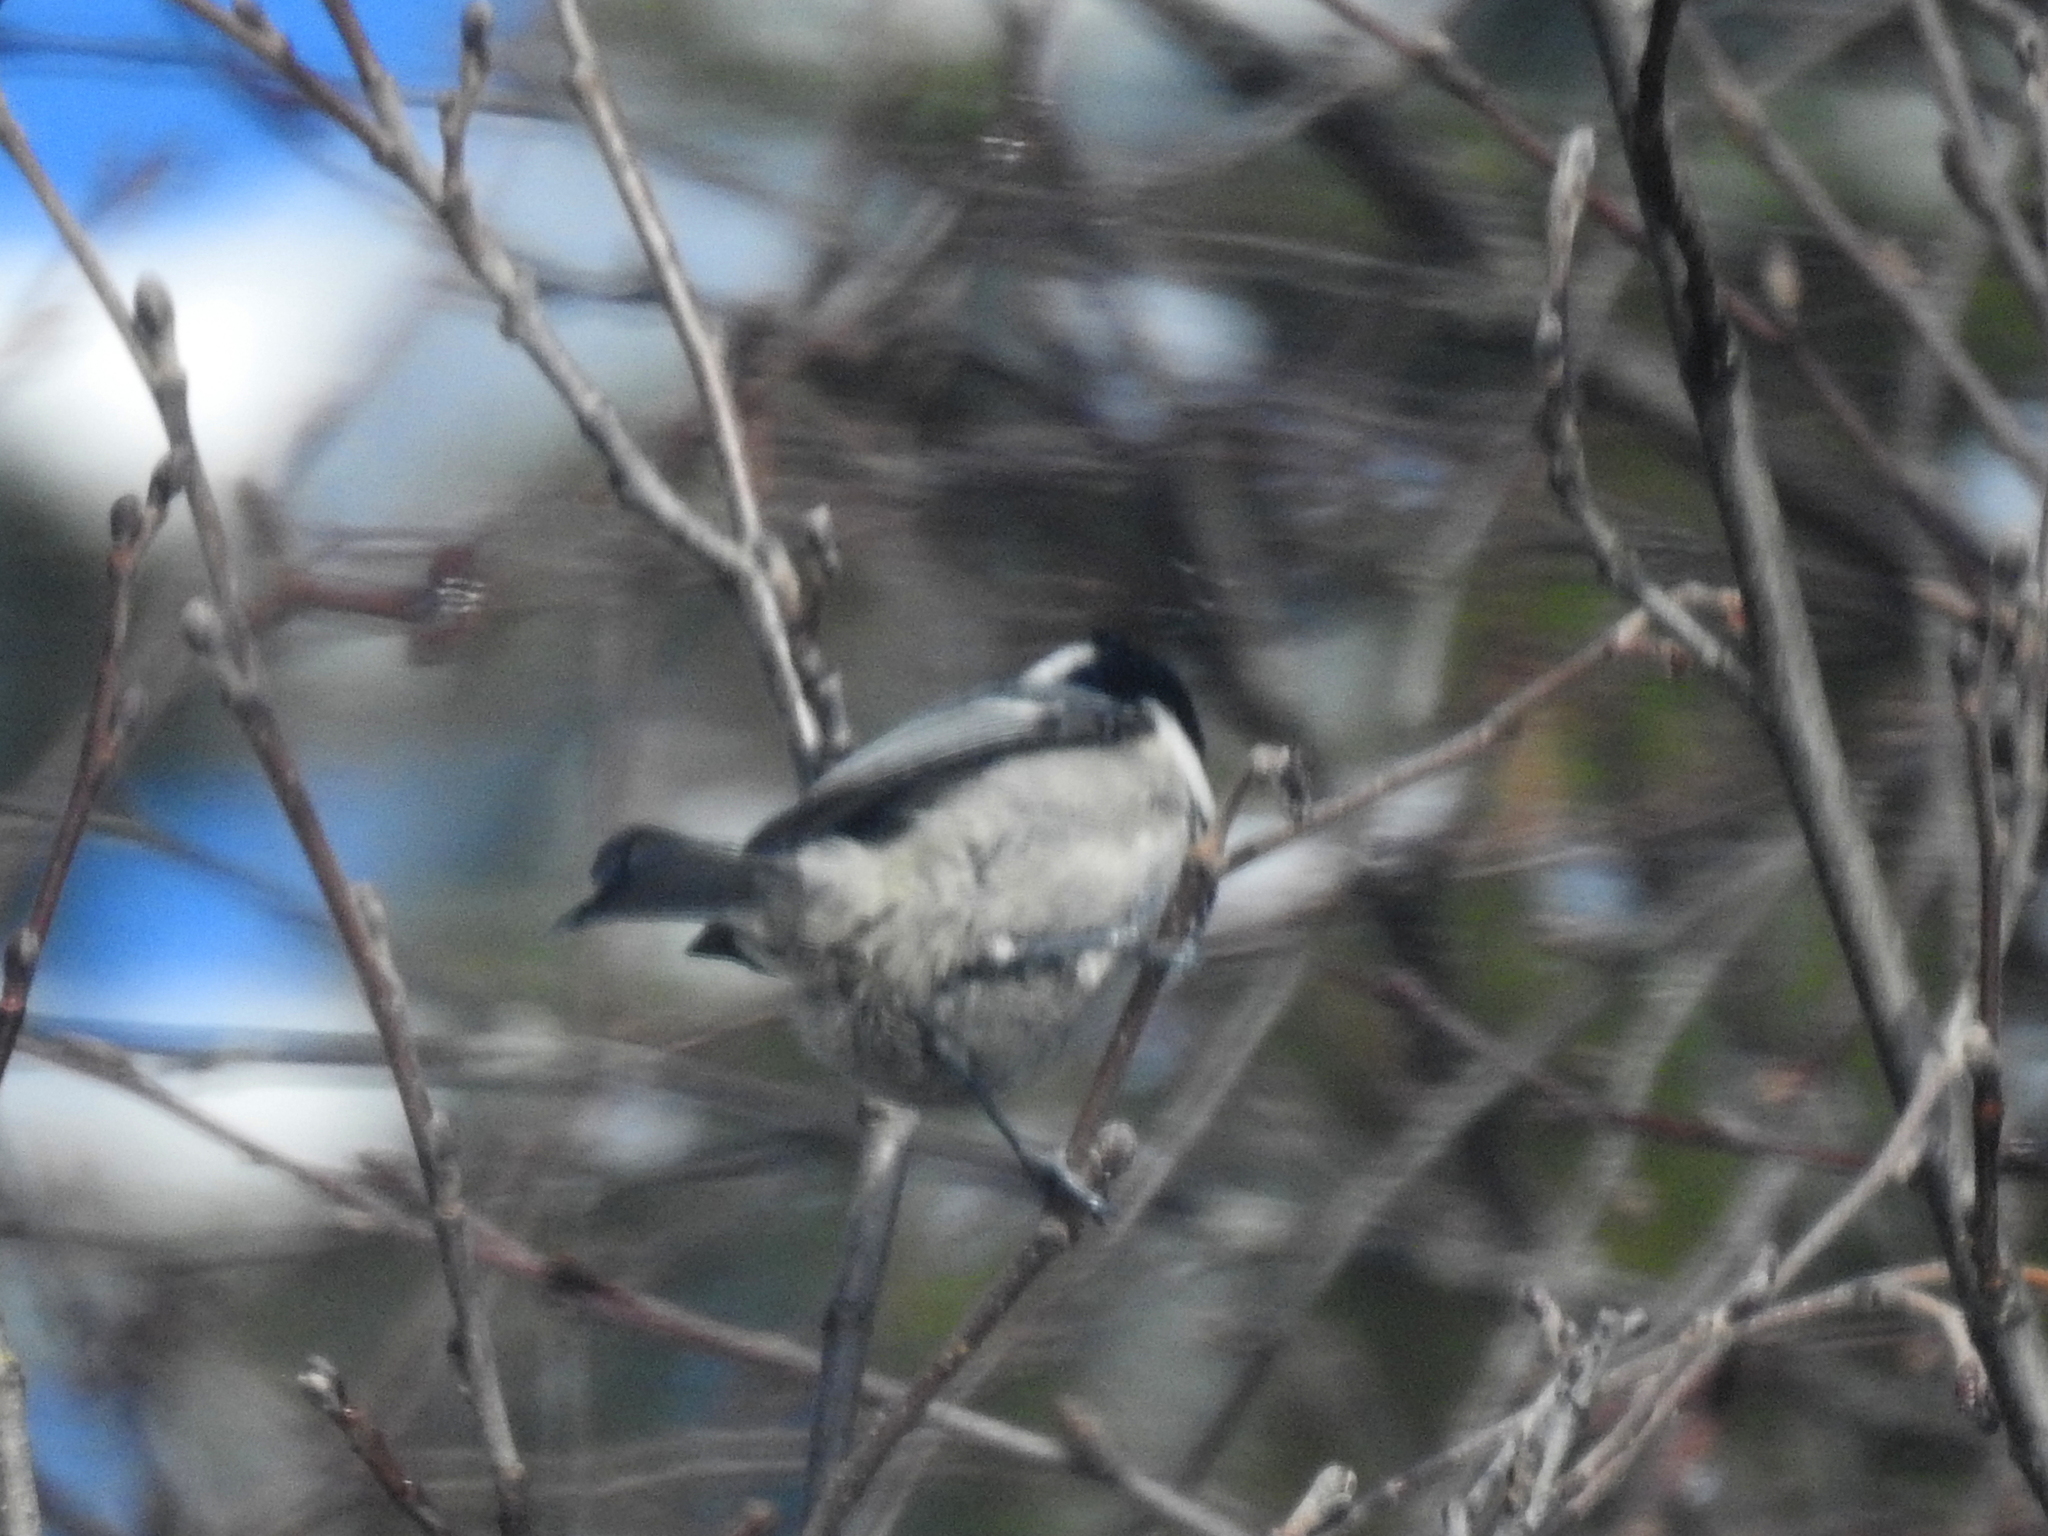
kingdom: Animalia
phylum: Chordata
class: Aves
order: Passeriformes
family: Paridae
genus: Periparus
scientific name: Periparus ater
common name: Coal tit
